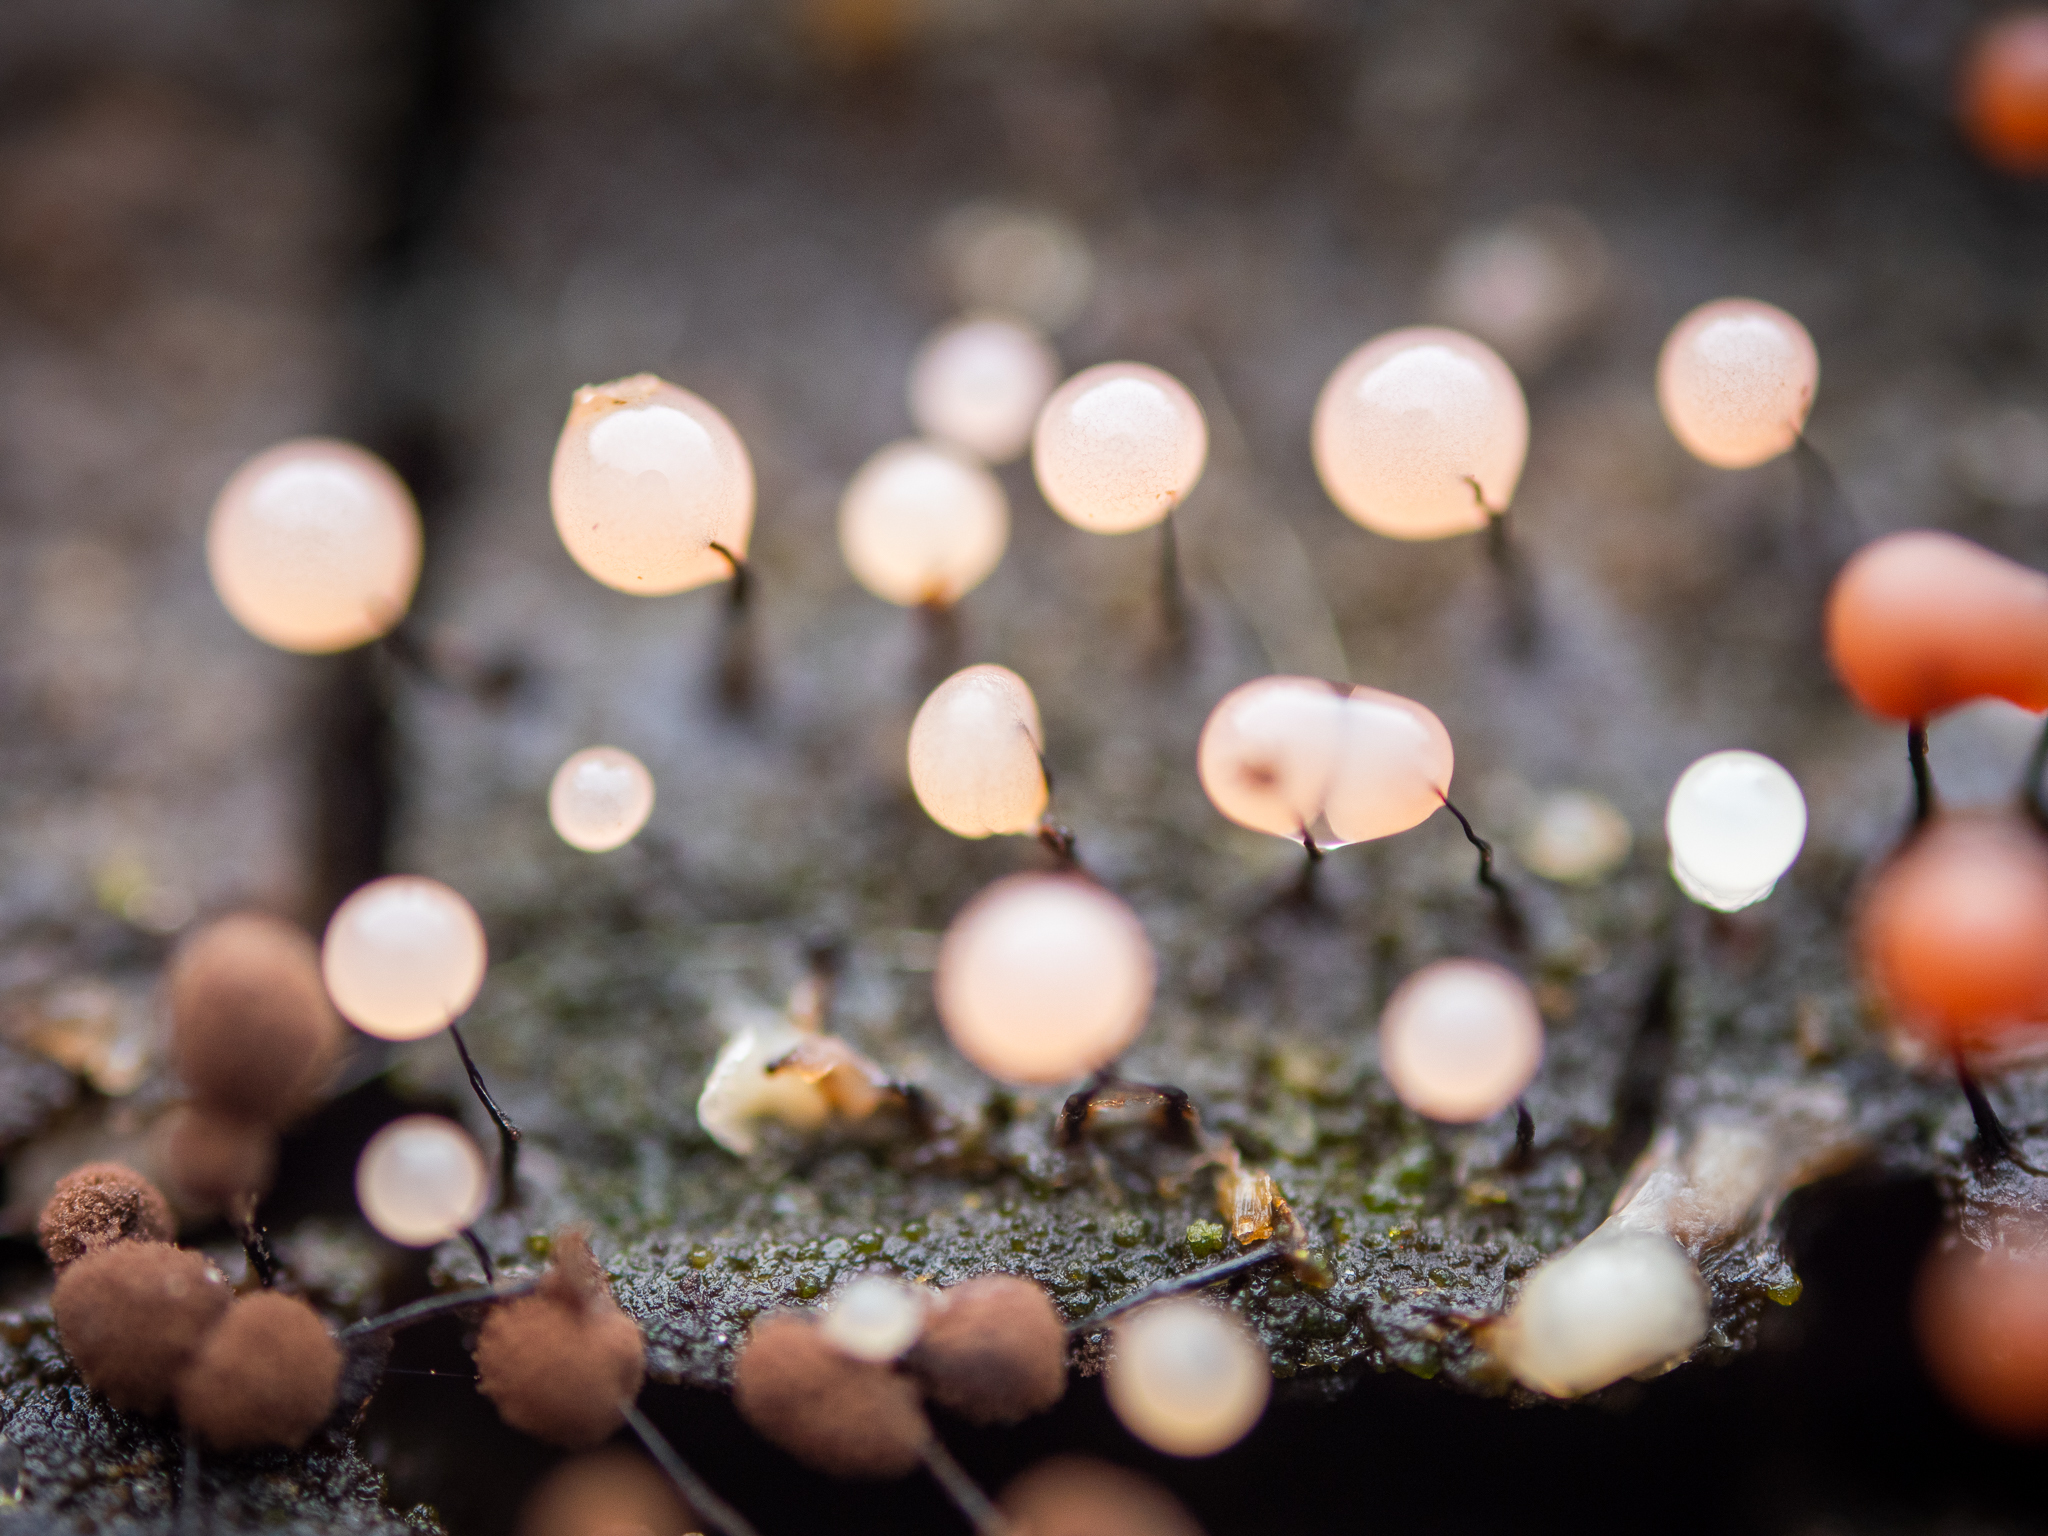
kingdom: Protozoa
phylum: Mycetozoa
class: Myxomycetes
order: Stemonitidales
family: Stemonitidaceae
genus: Comatricha
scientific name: Comatricha nigra
